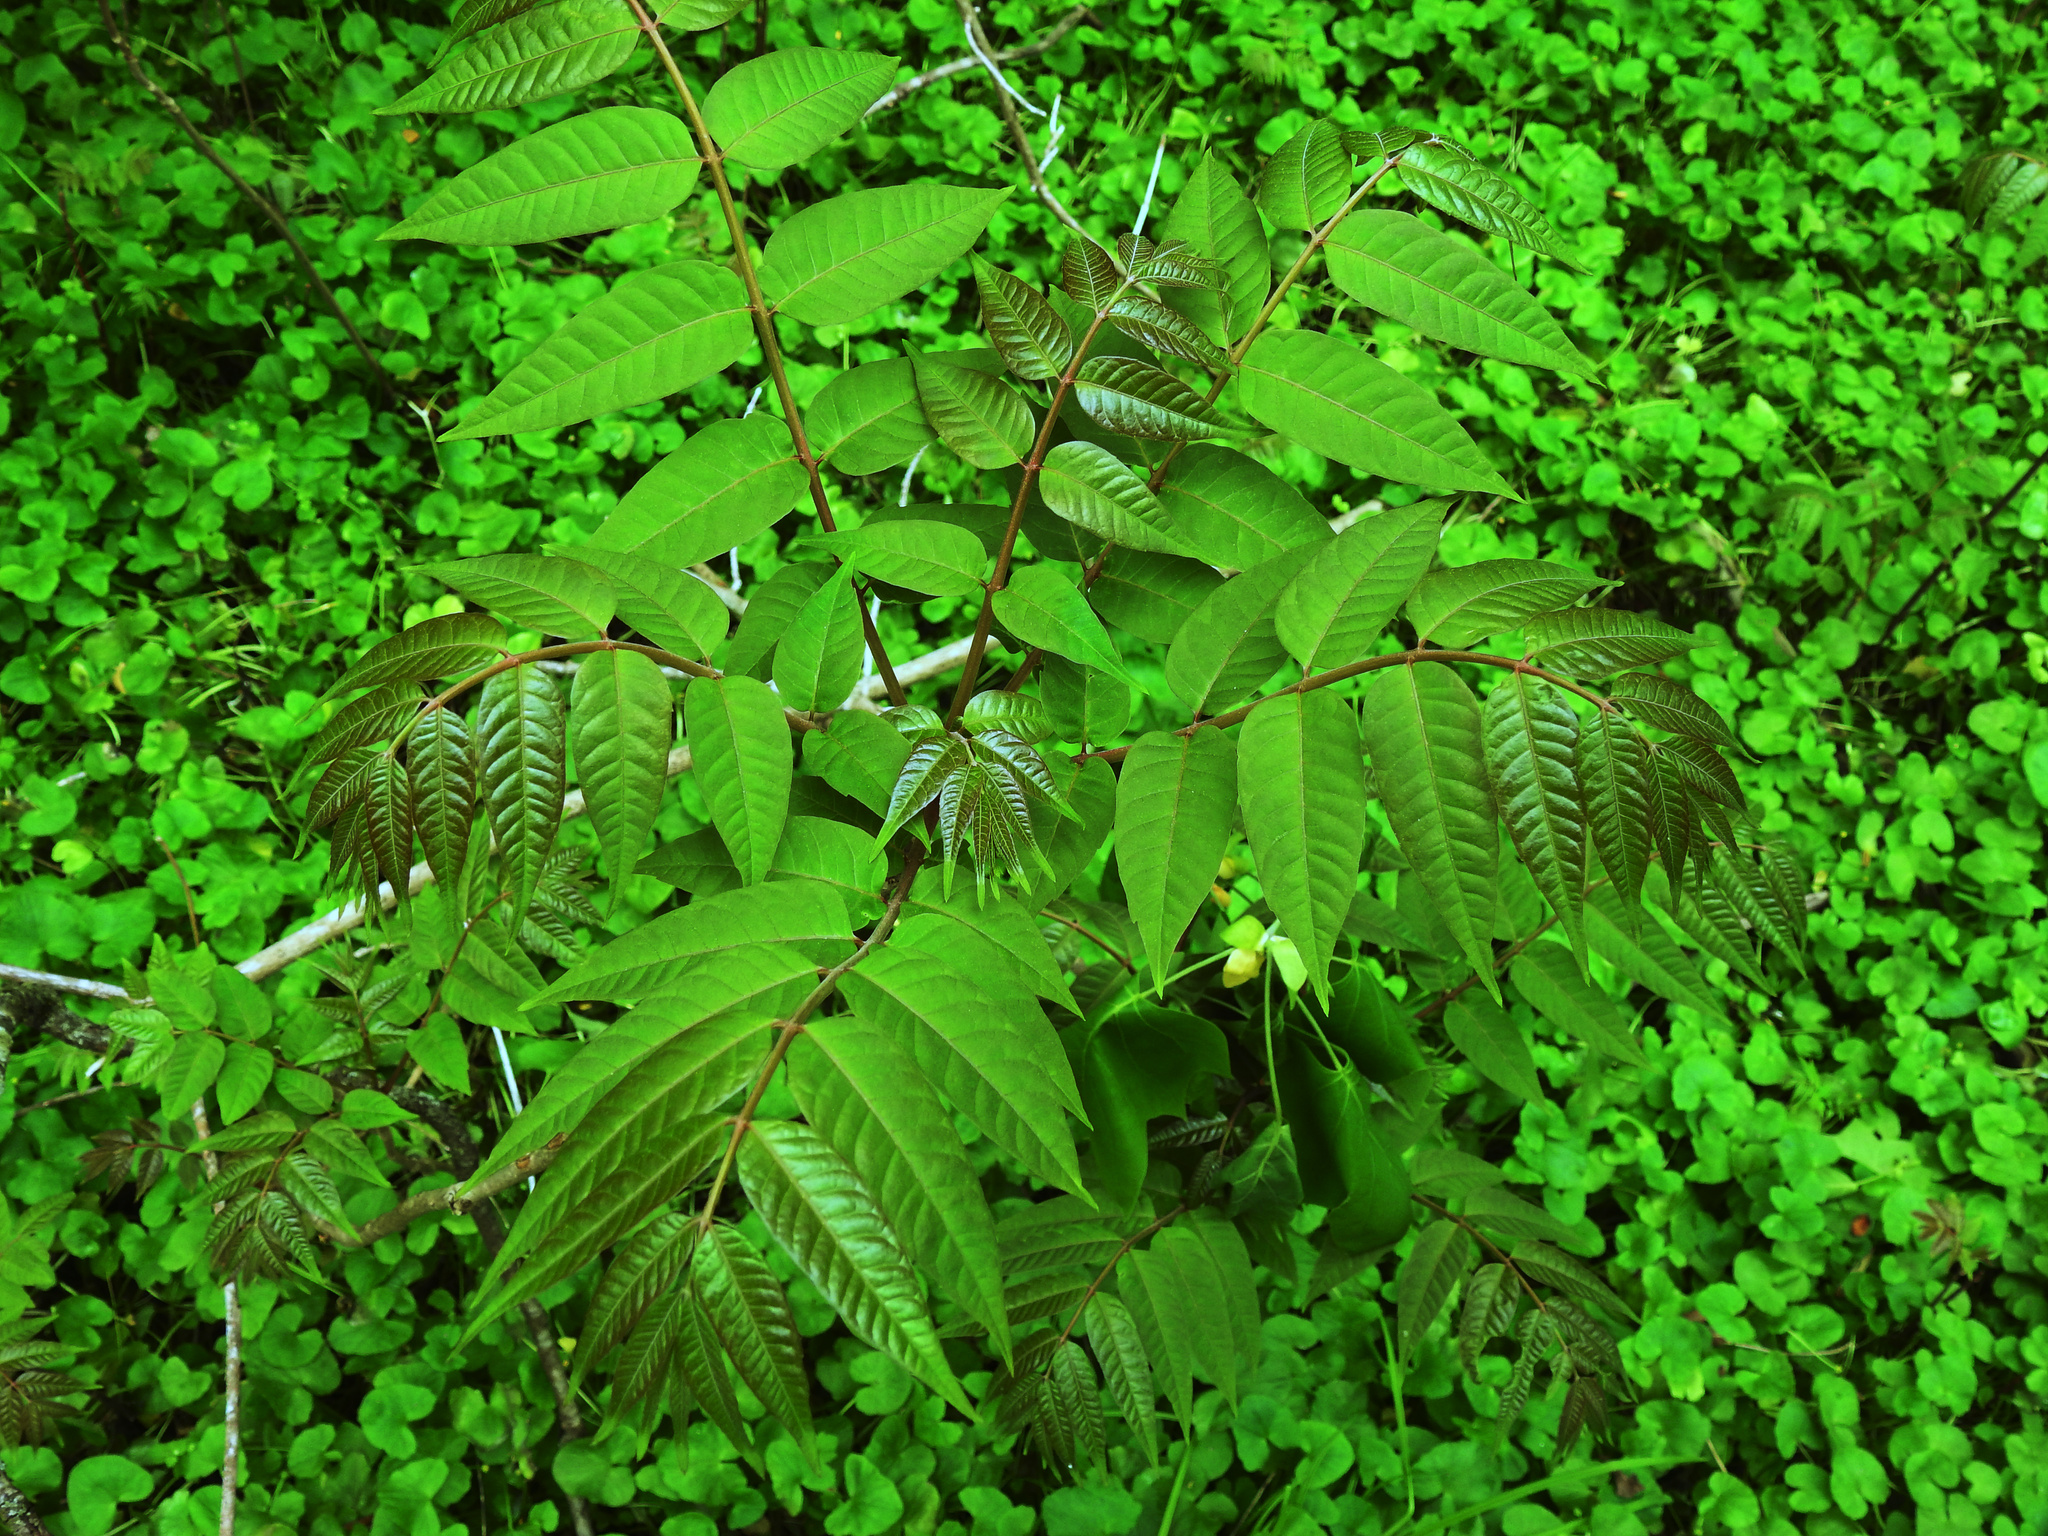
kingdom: Plantae
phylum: Tracheophyta
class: Magnoliopsida
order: Sapindales
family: Simaroubaceae
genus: Ailanthus
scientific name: Ailanthus altissima
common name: Tree-of-heaven
